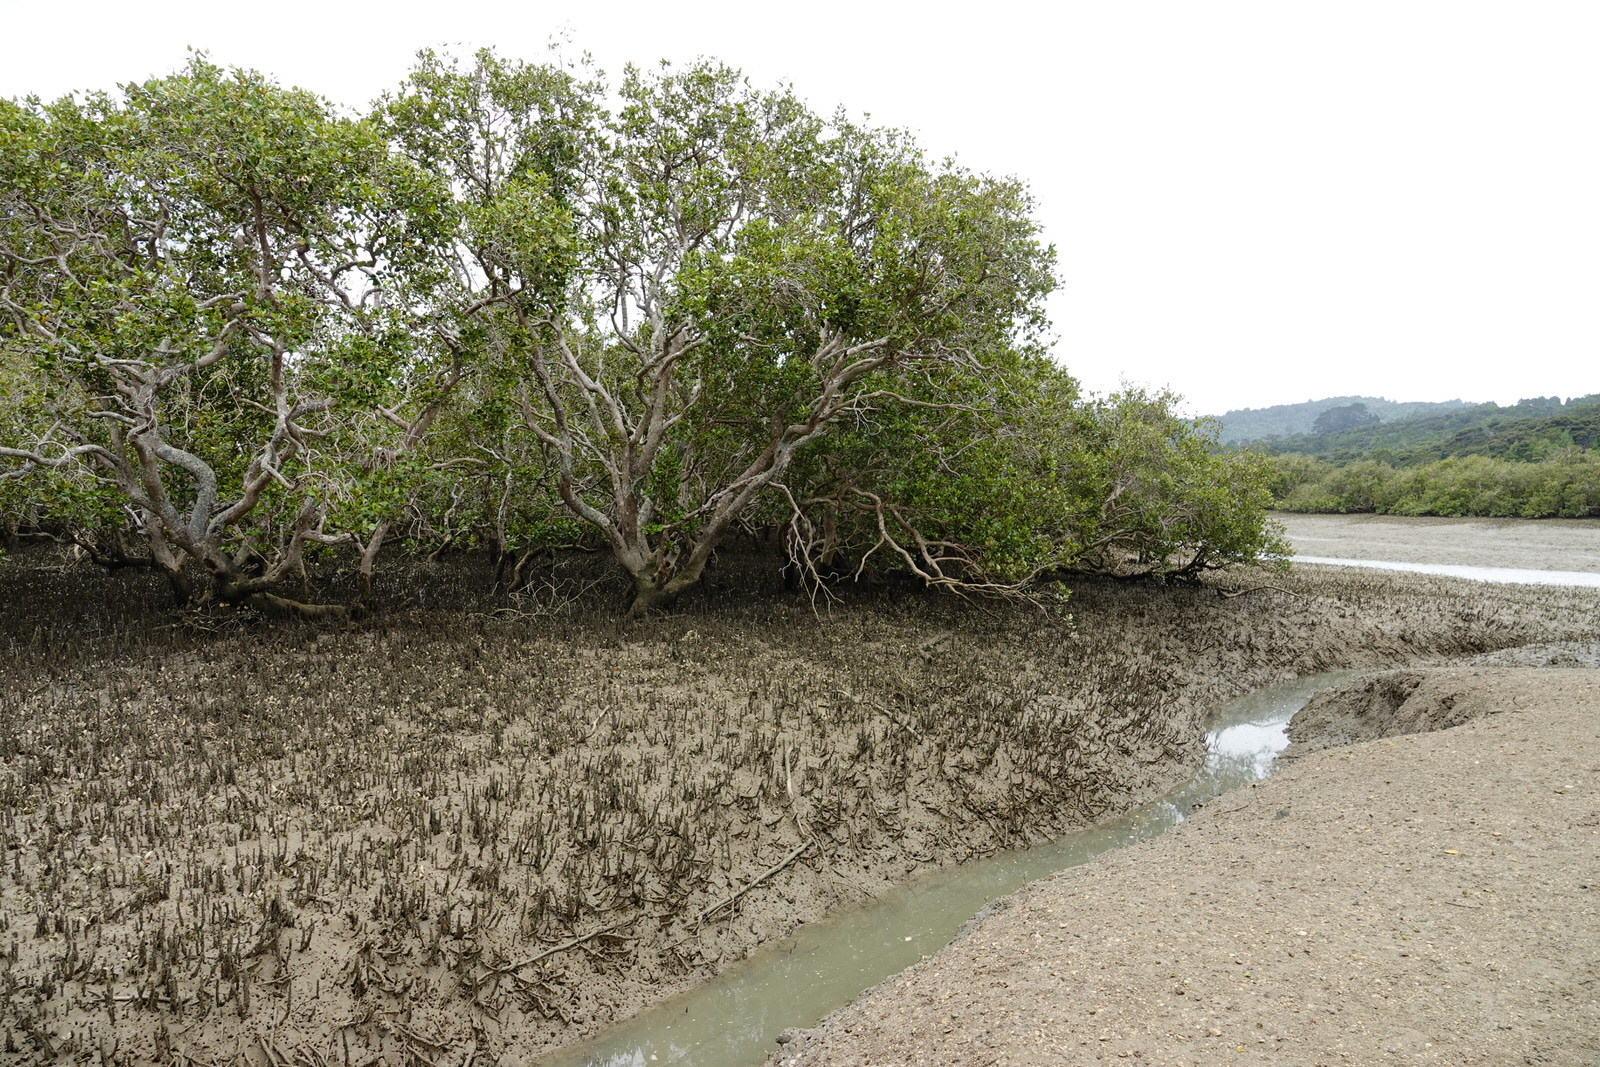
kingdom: Plantae
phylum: Tracheophyta
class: Magnoliopsida
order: Lamiales
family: Acanthaceae
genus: Avicennia
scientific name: Avicennia marina
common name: Gray mangrove
